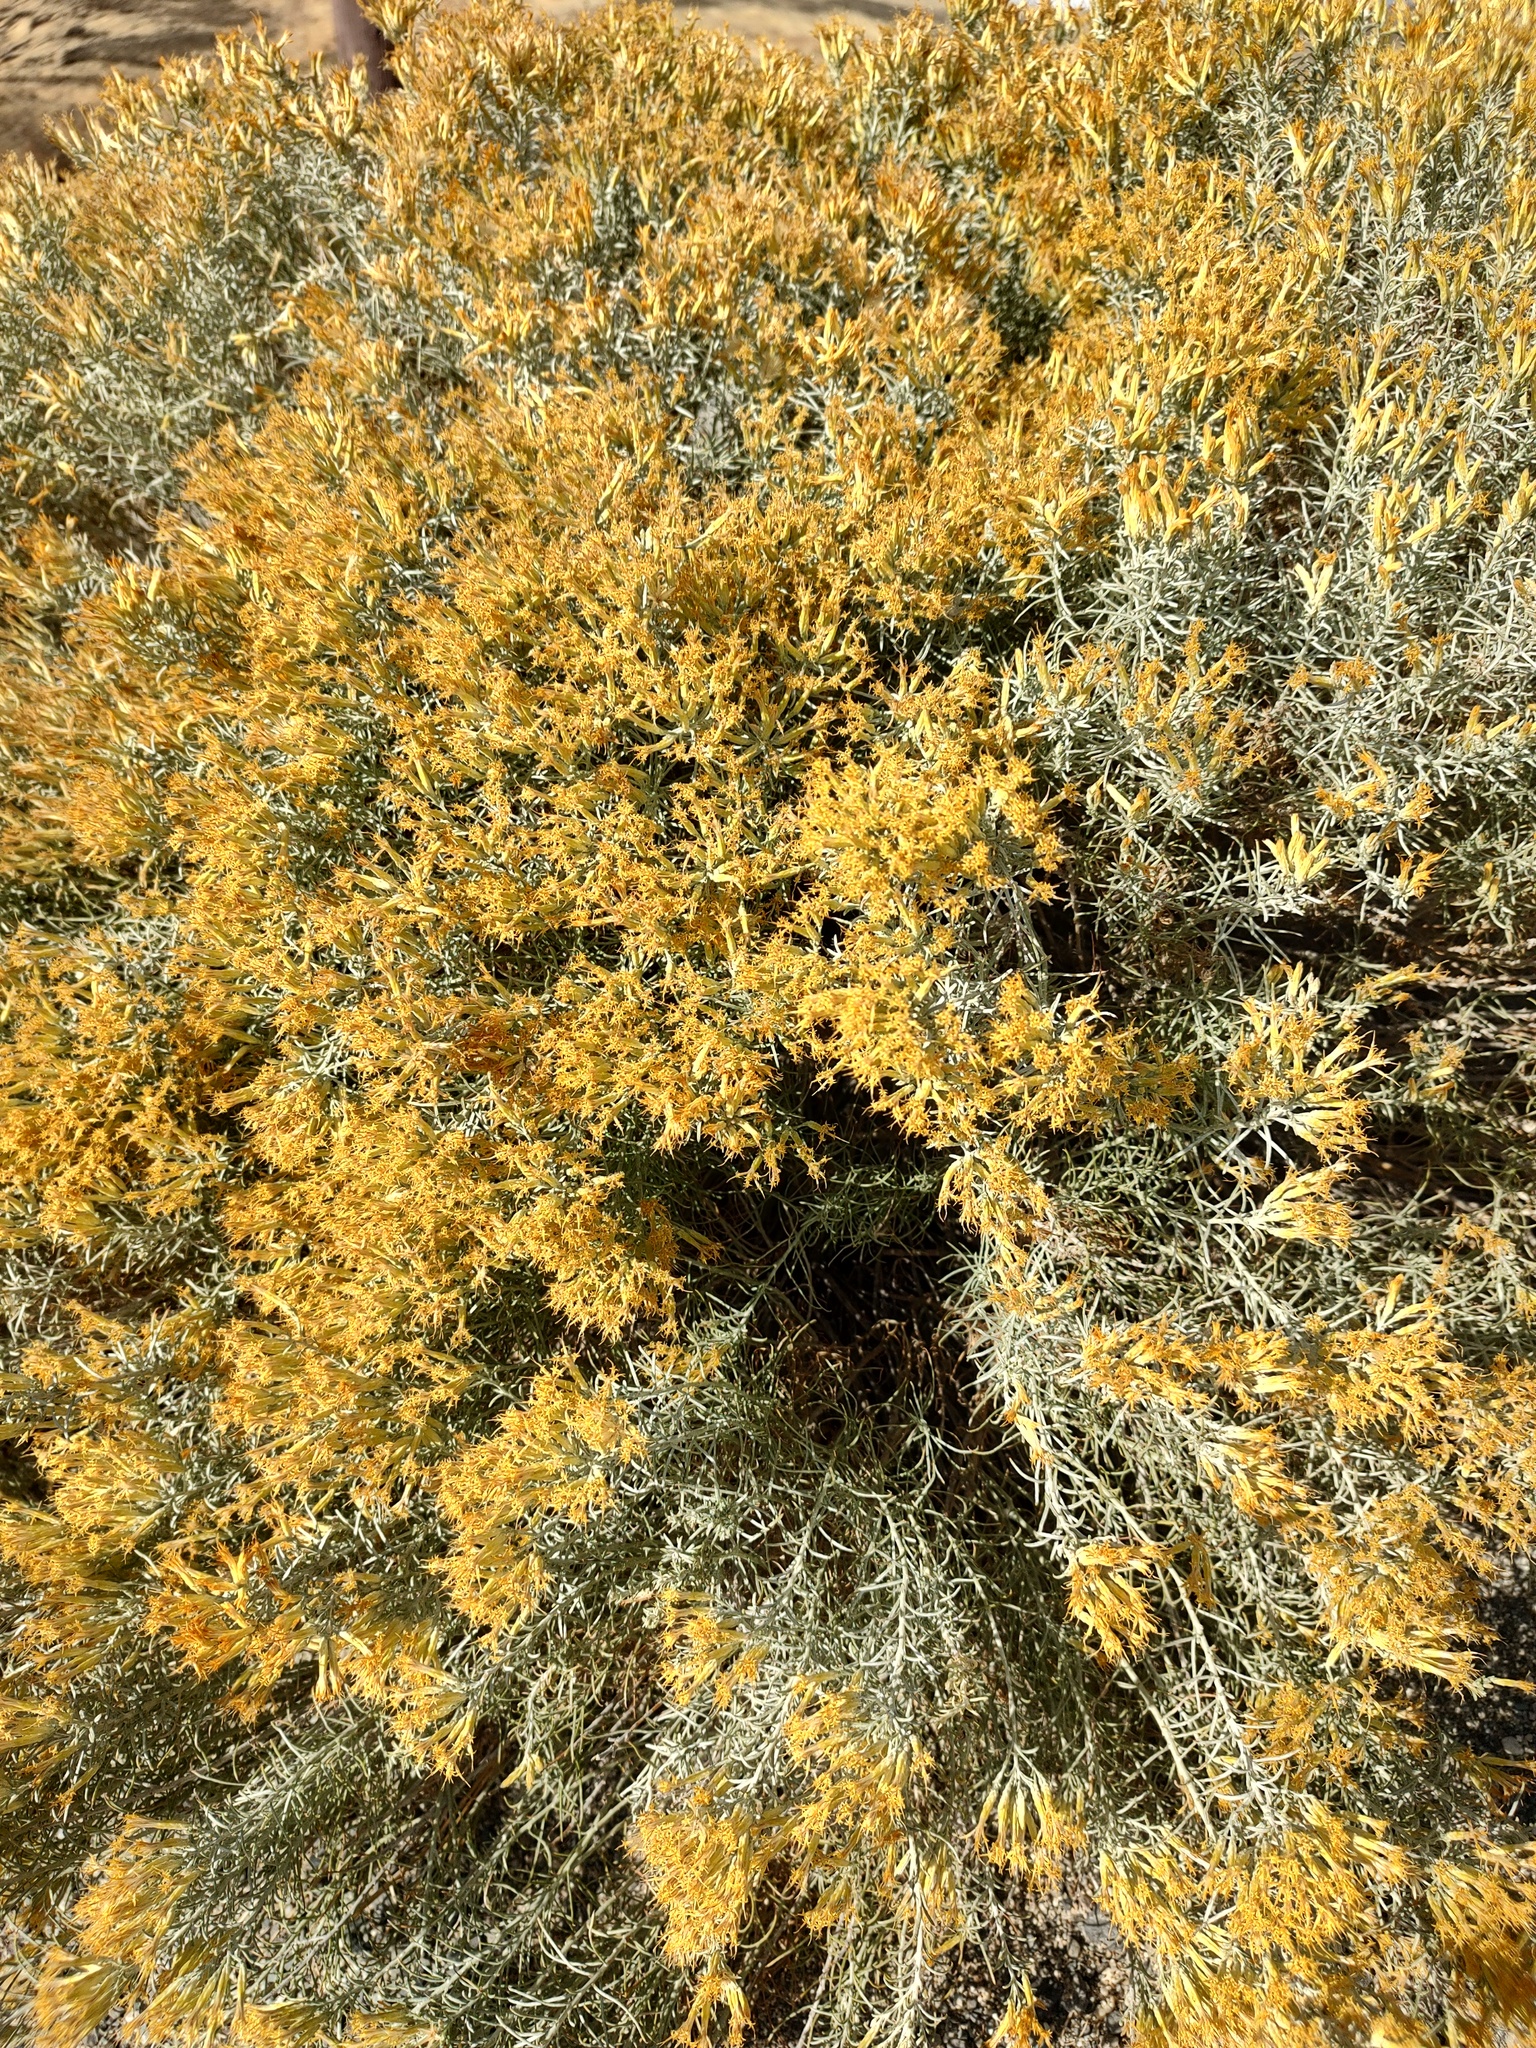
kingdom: Plantae
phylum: Tracheophyta
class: Magnoliopsida
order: Asterales
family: Asteraceae
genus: Ericameria
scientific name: Ericameria nauseosa
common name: Rubber rabbitbrush
